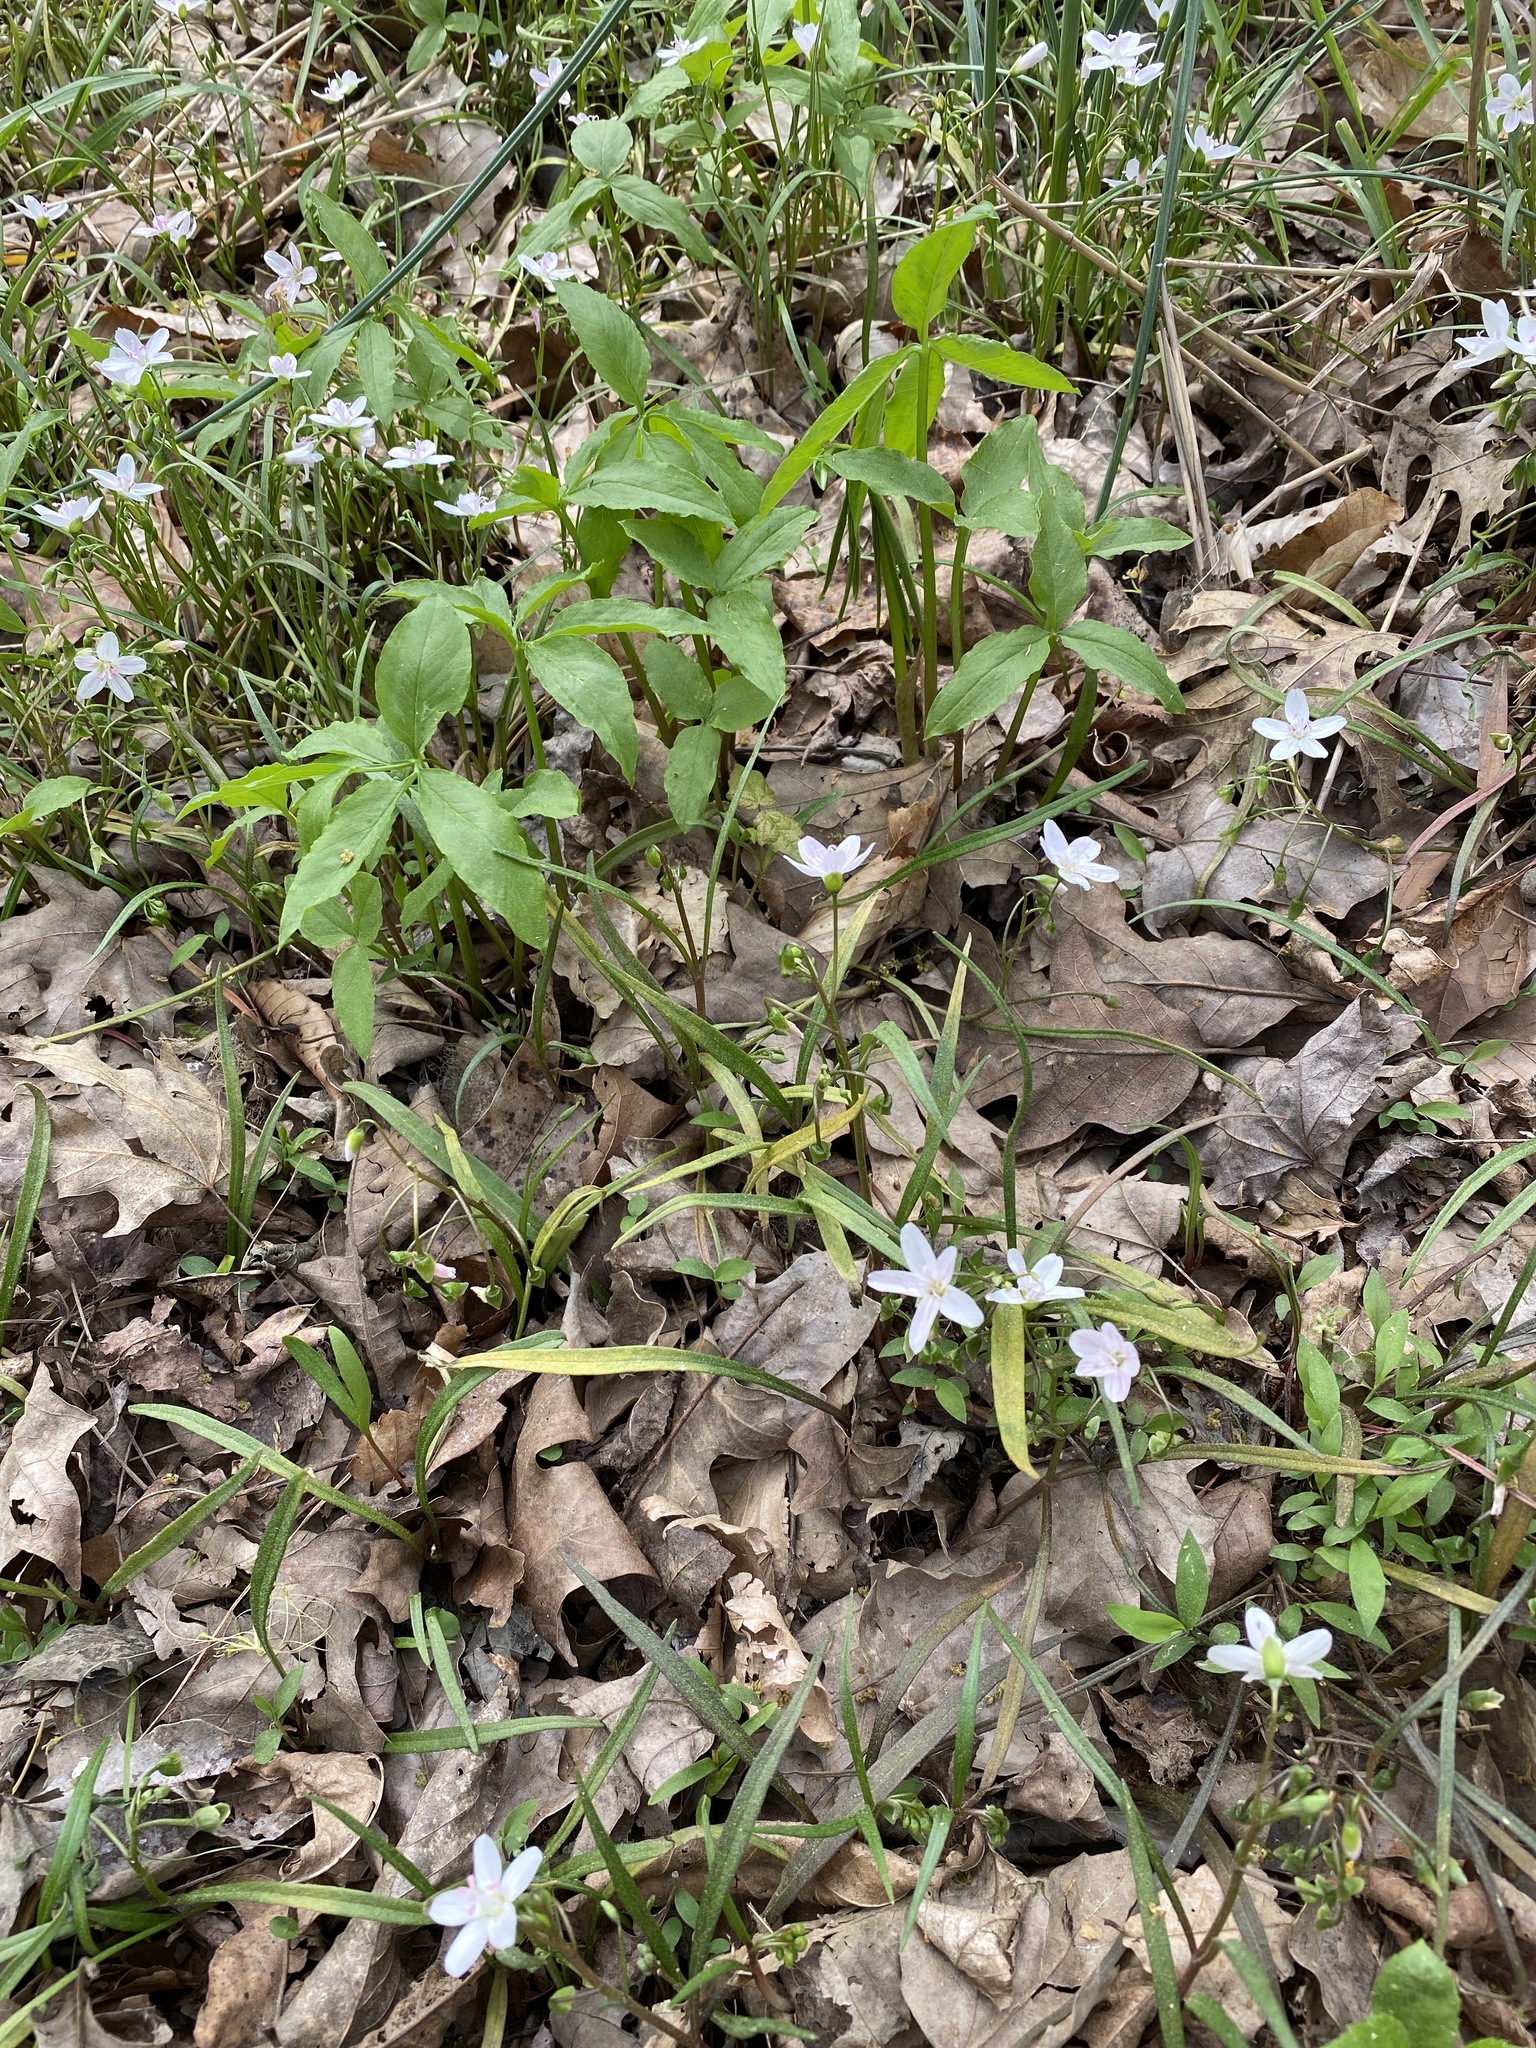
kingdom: Plantae
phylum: Tracheophyta
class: Liliopsida
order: Alismatales
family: Araceae
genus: Arisaema
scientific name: Arisaema dracontium
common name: Dragon-arum
